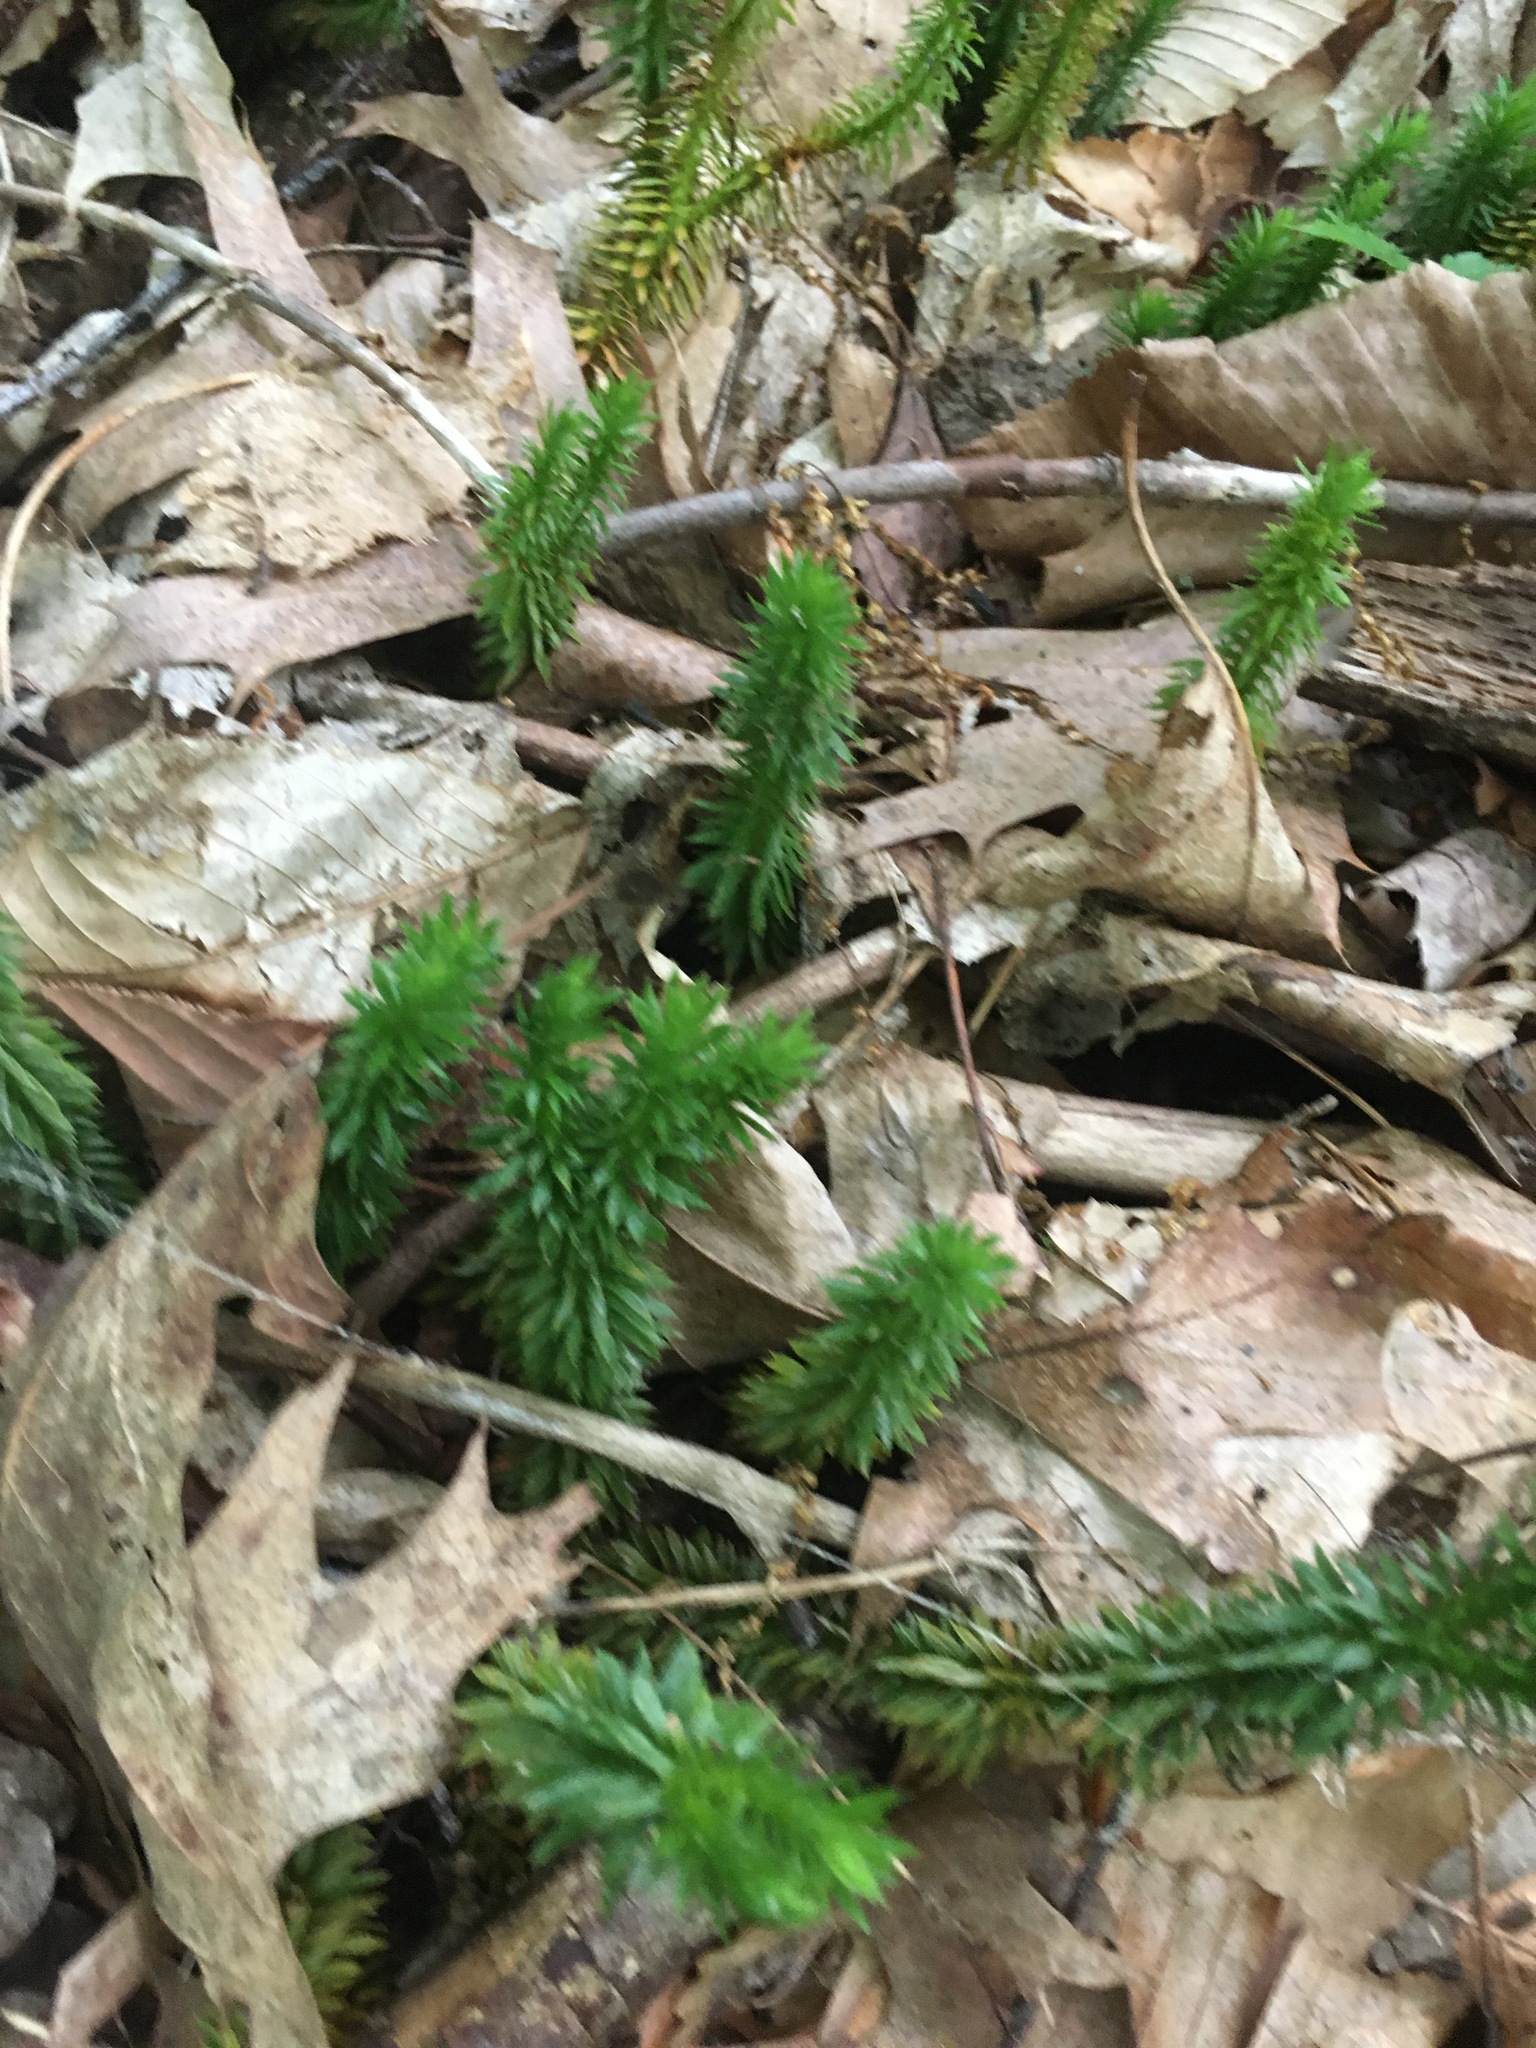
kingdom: Plantae
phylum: Tracheophyta
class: Lycopodiopsida
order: Lycopodiales
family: Lycopodiaceae
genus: Huperzia
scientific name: Huperzia lucidula
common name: Shining clubmoss
